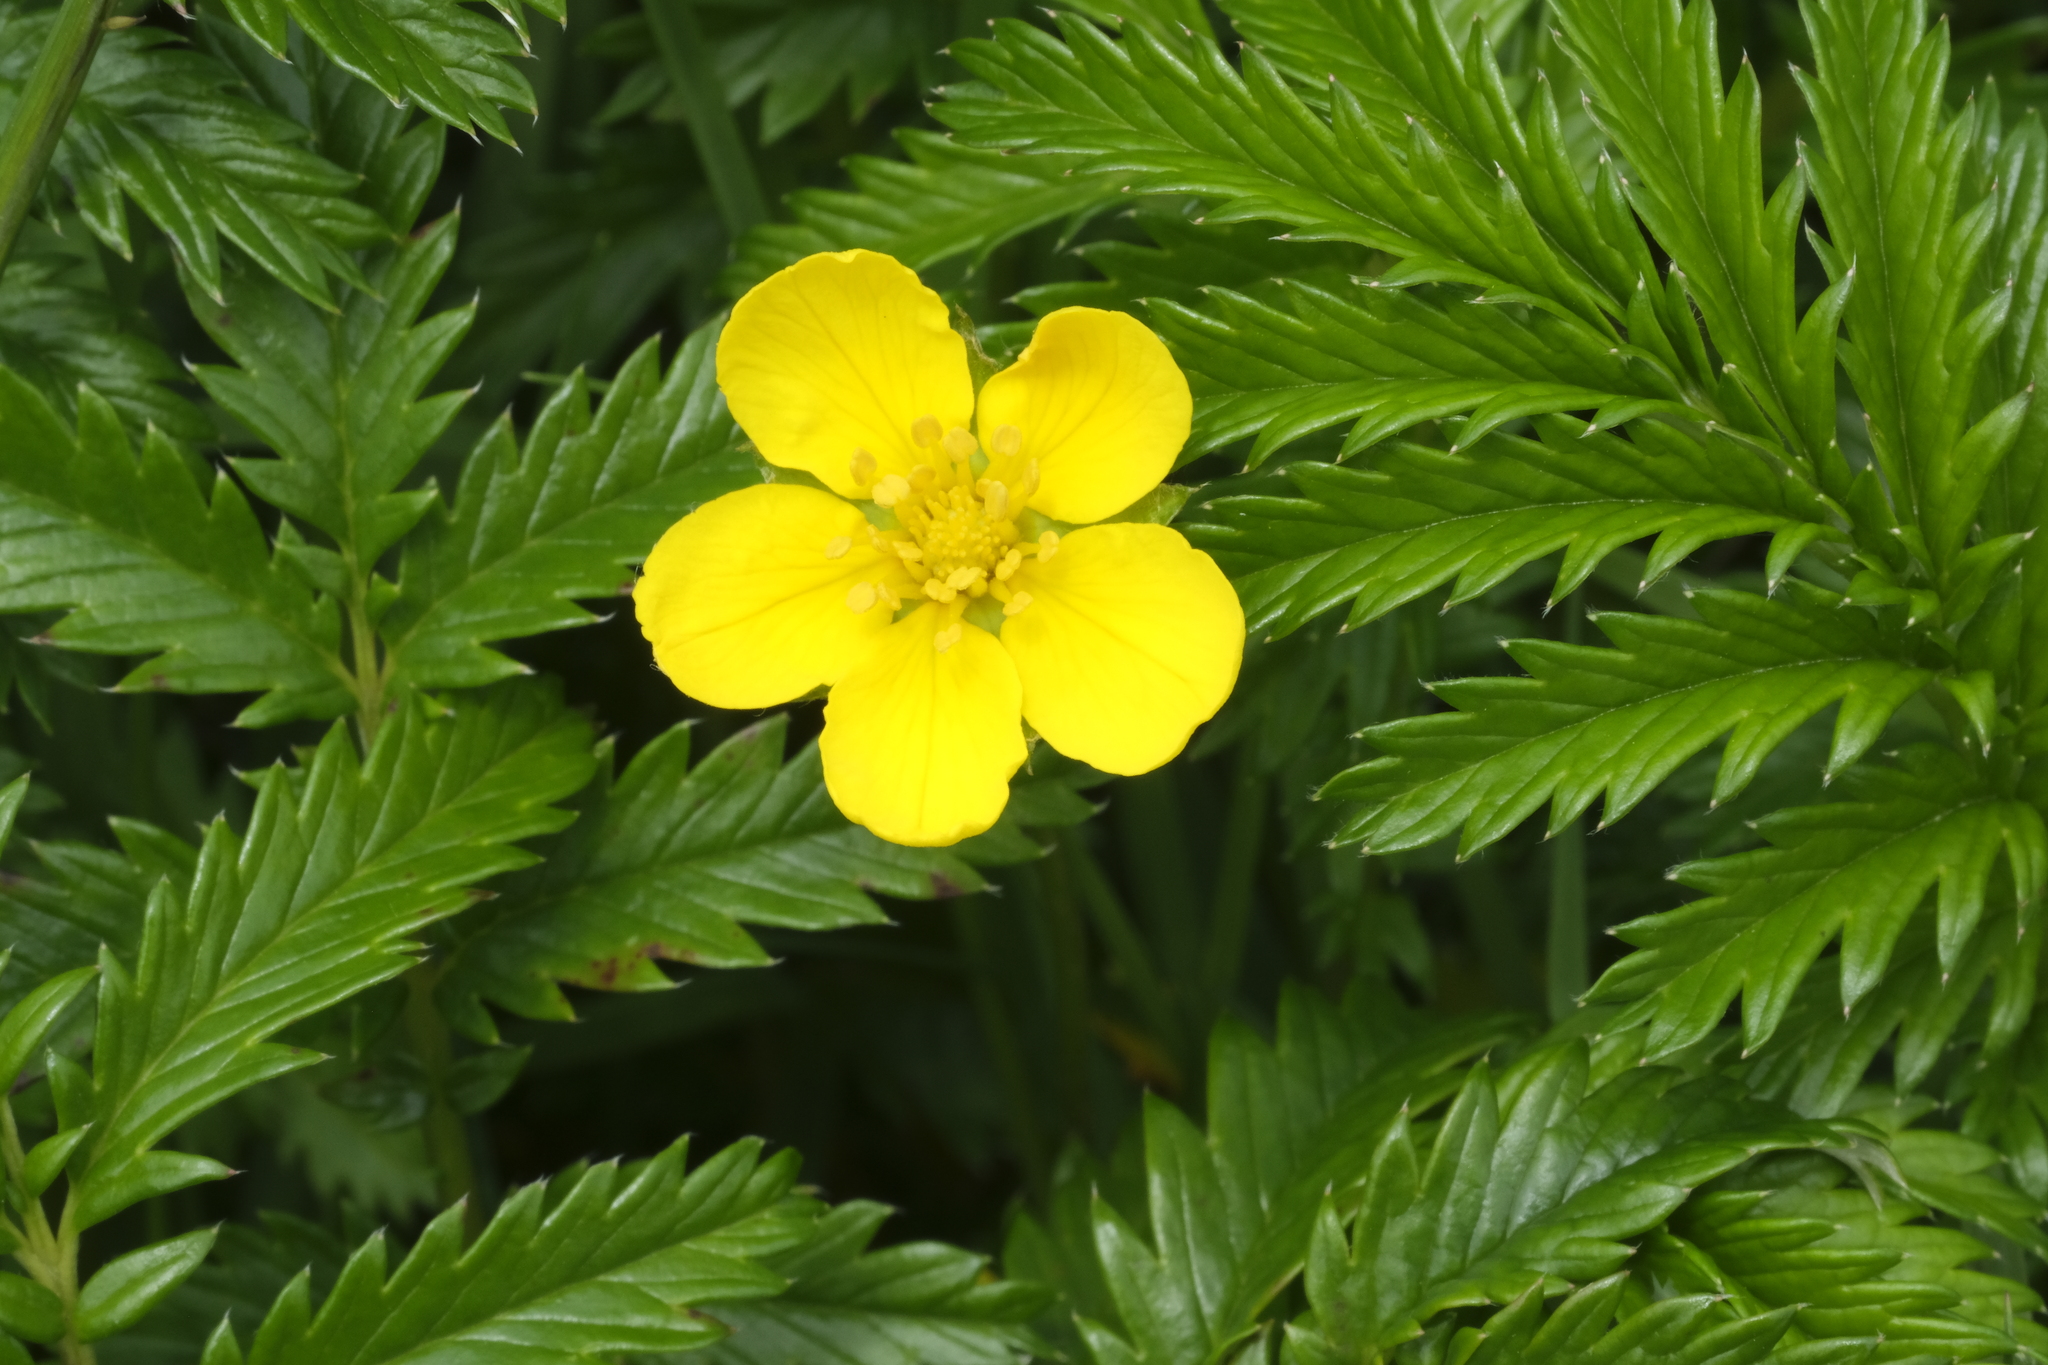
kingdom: Plantae
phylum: Tracheophyta
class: Magnoliopsida
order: Rosales
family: Rosaceae
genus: Argentina
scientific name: Argentina anserina
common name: Common silverweed
